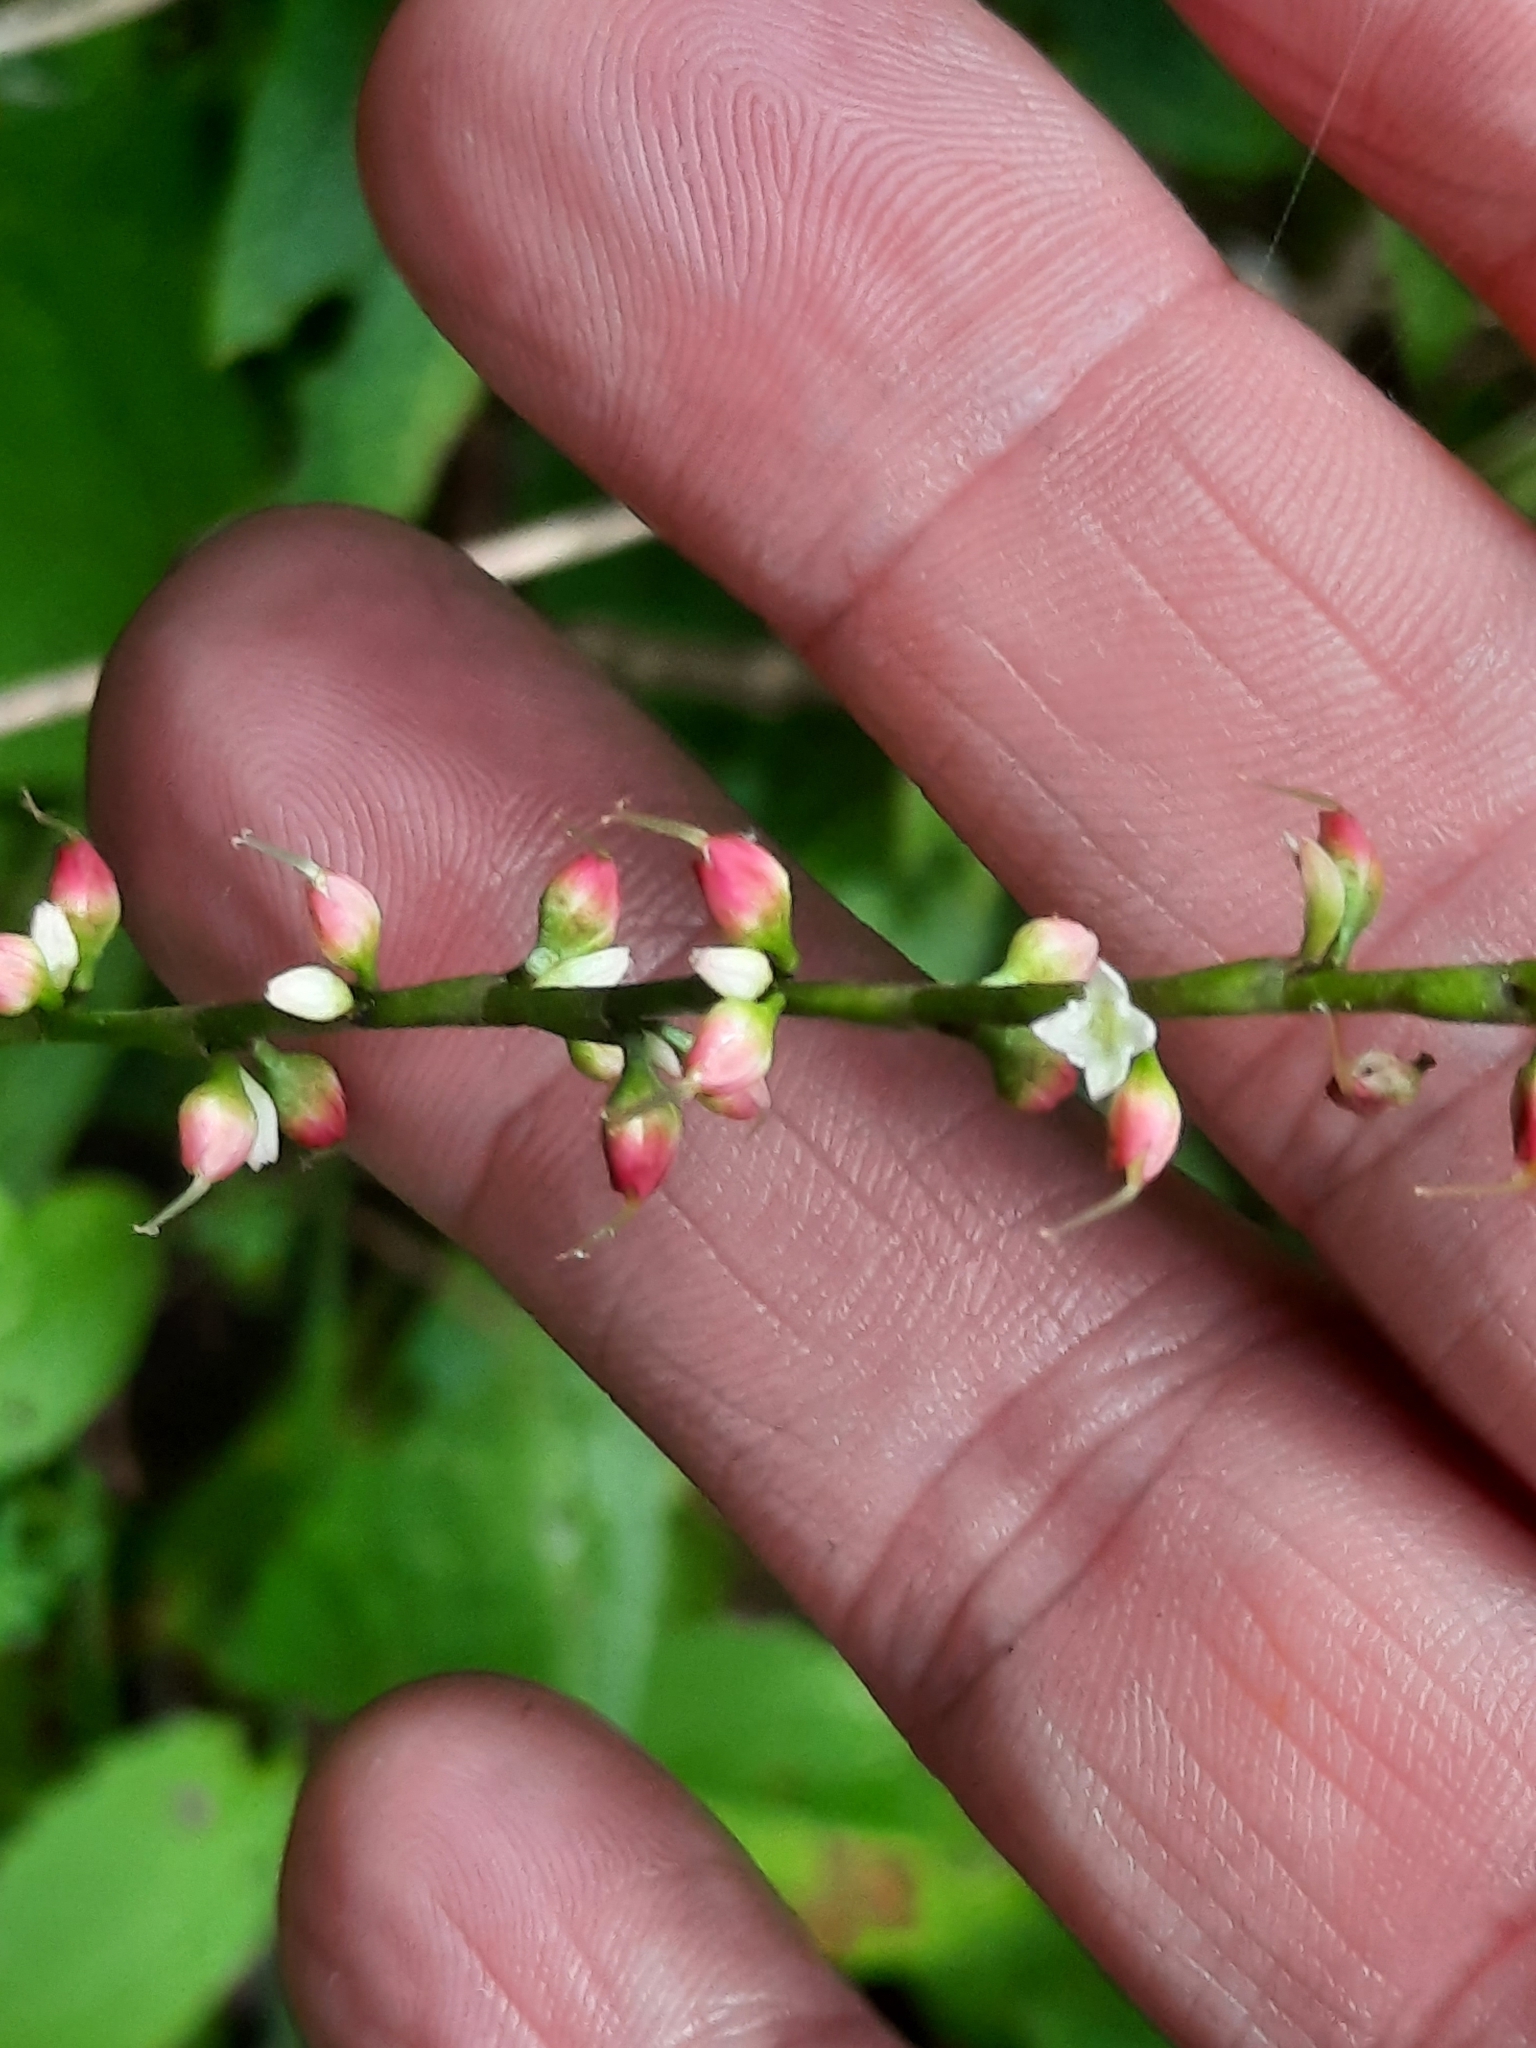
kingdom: Plantae
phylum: Tracheophyta
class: Magnoliopsida
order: Caryophyllales
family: Polygonaceae
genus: Persicaria
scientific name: Persicaria virginiana
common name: Jumpseed
